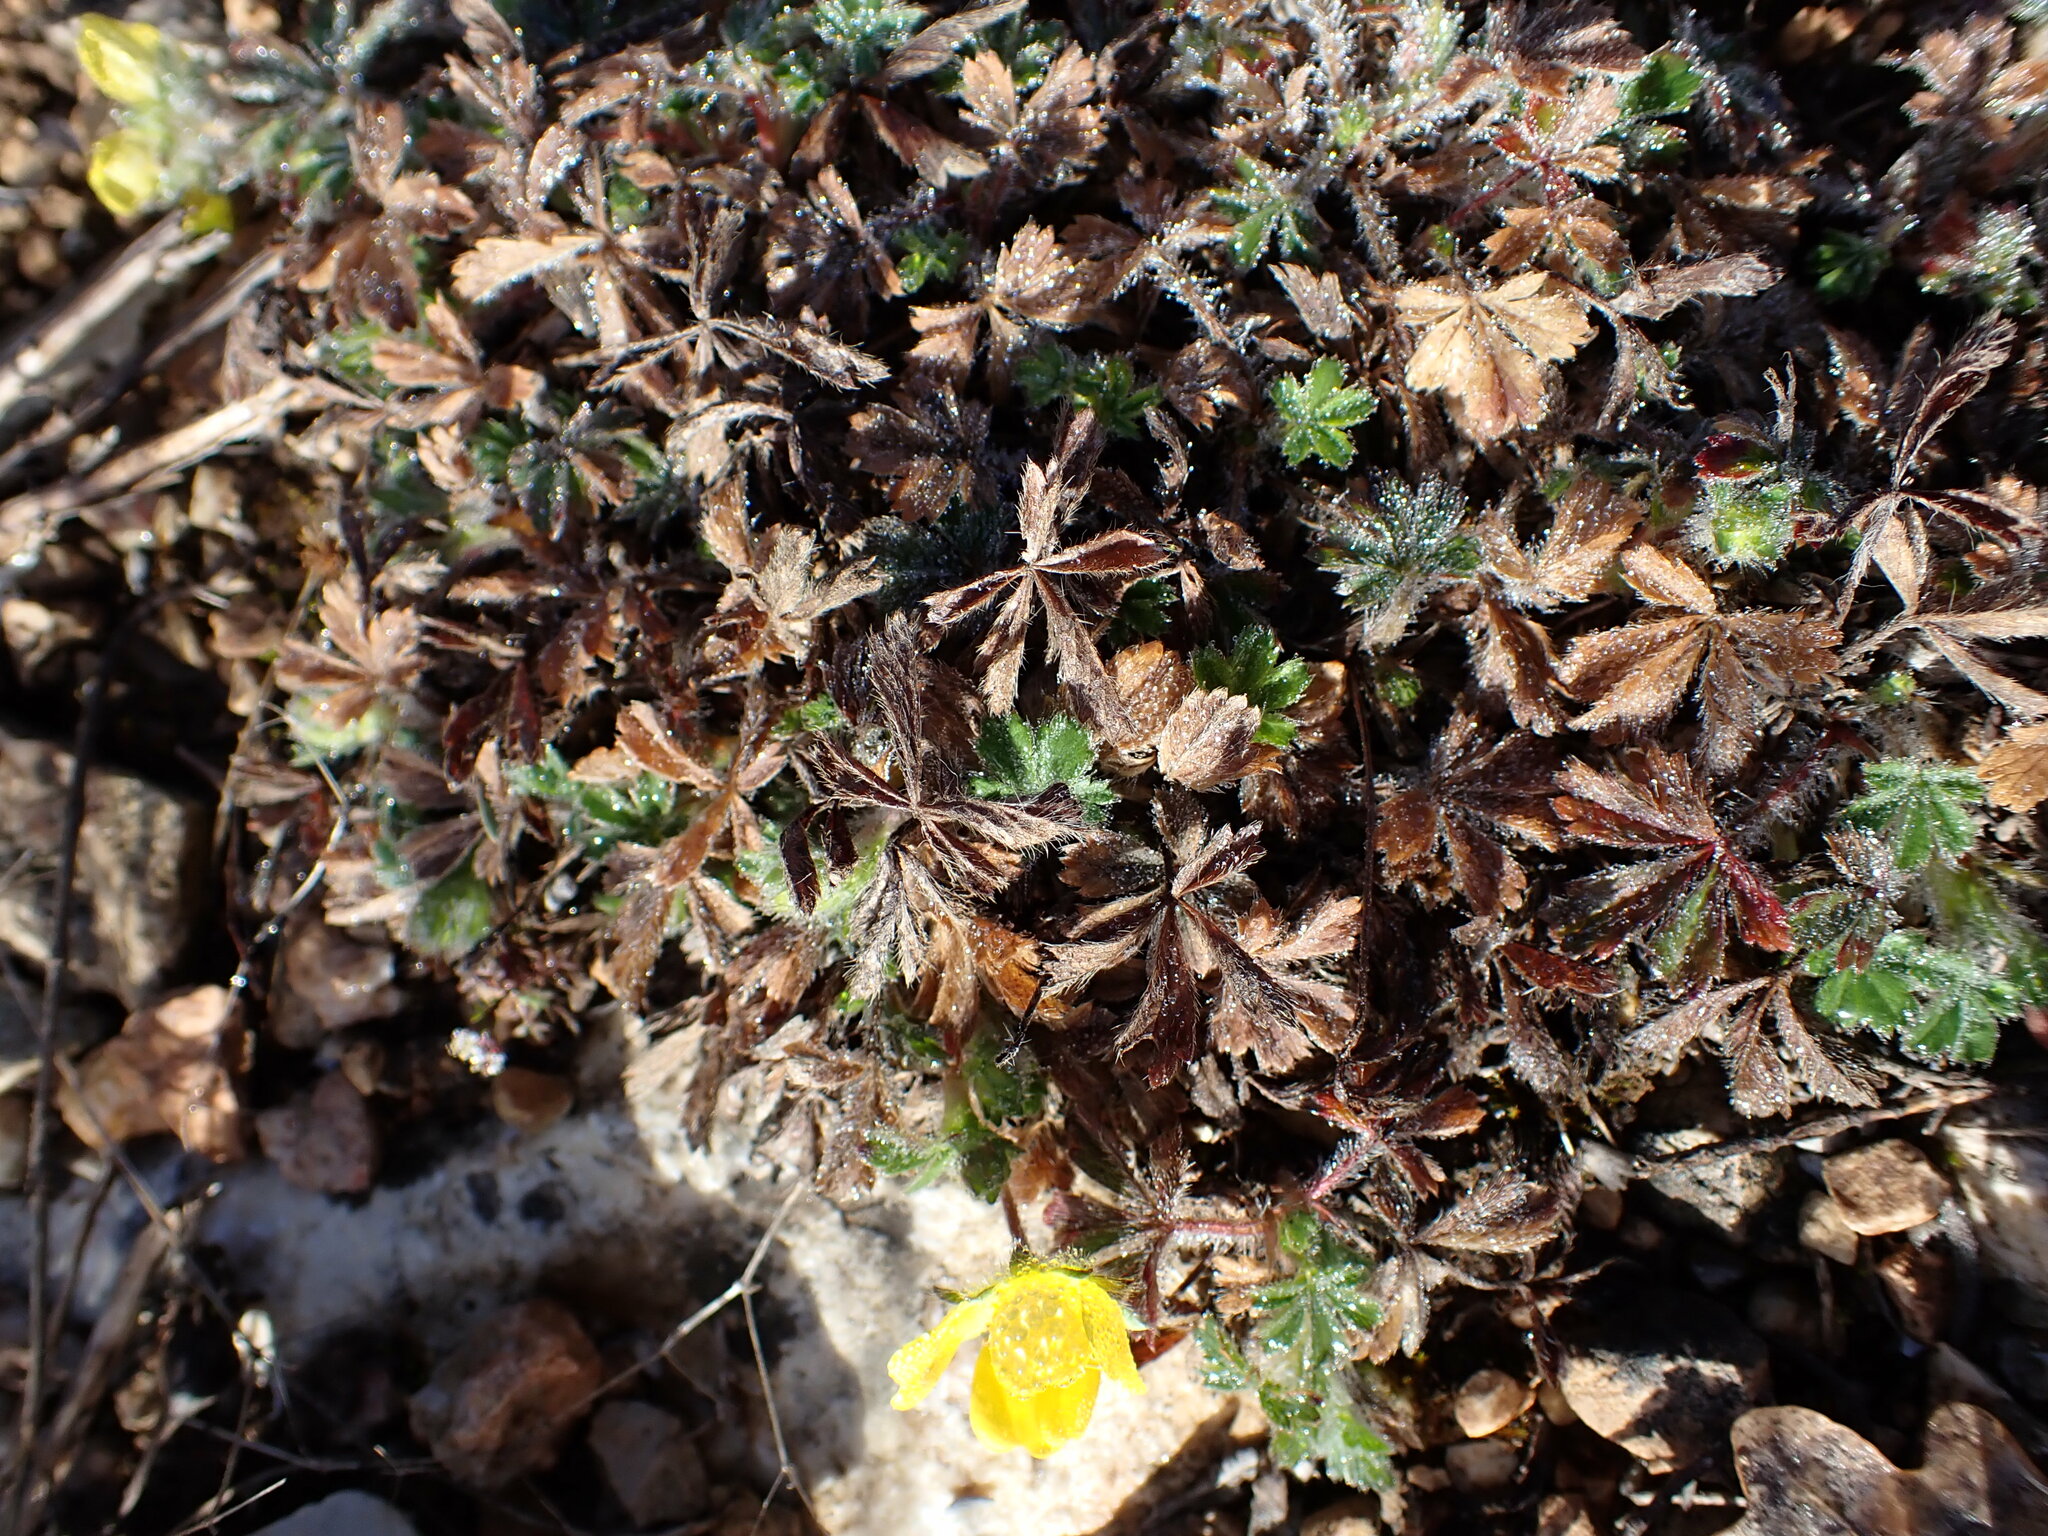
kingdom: Plantae
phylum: Tracheophyta
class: Magnoliopsida
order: Rosales
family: Rosaceae
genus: Potentilla
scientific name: Potentilla verna
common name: Spring cinquefoil
